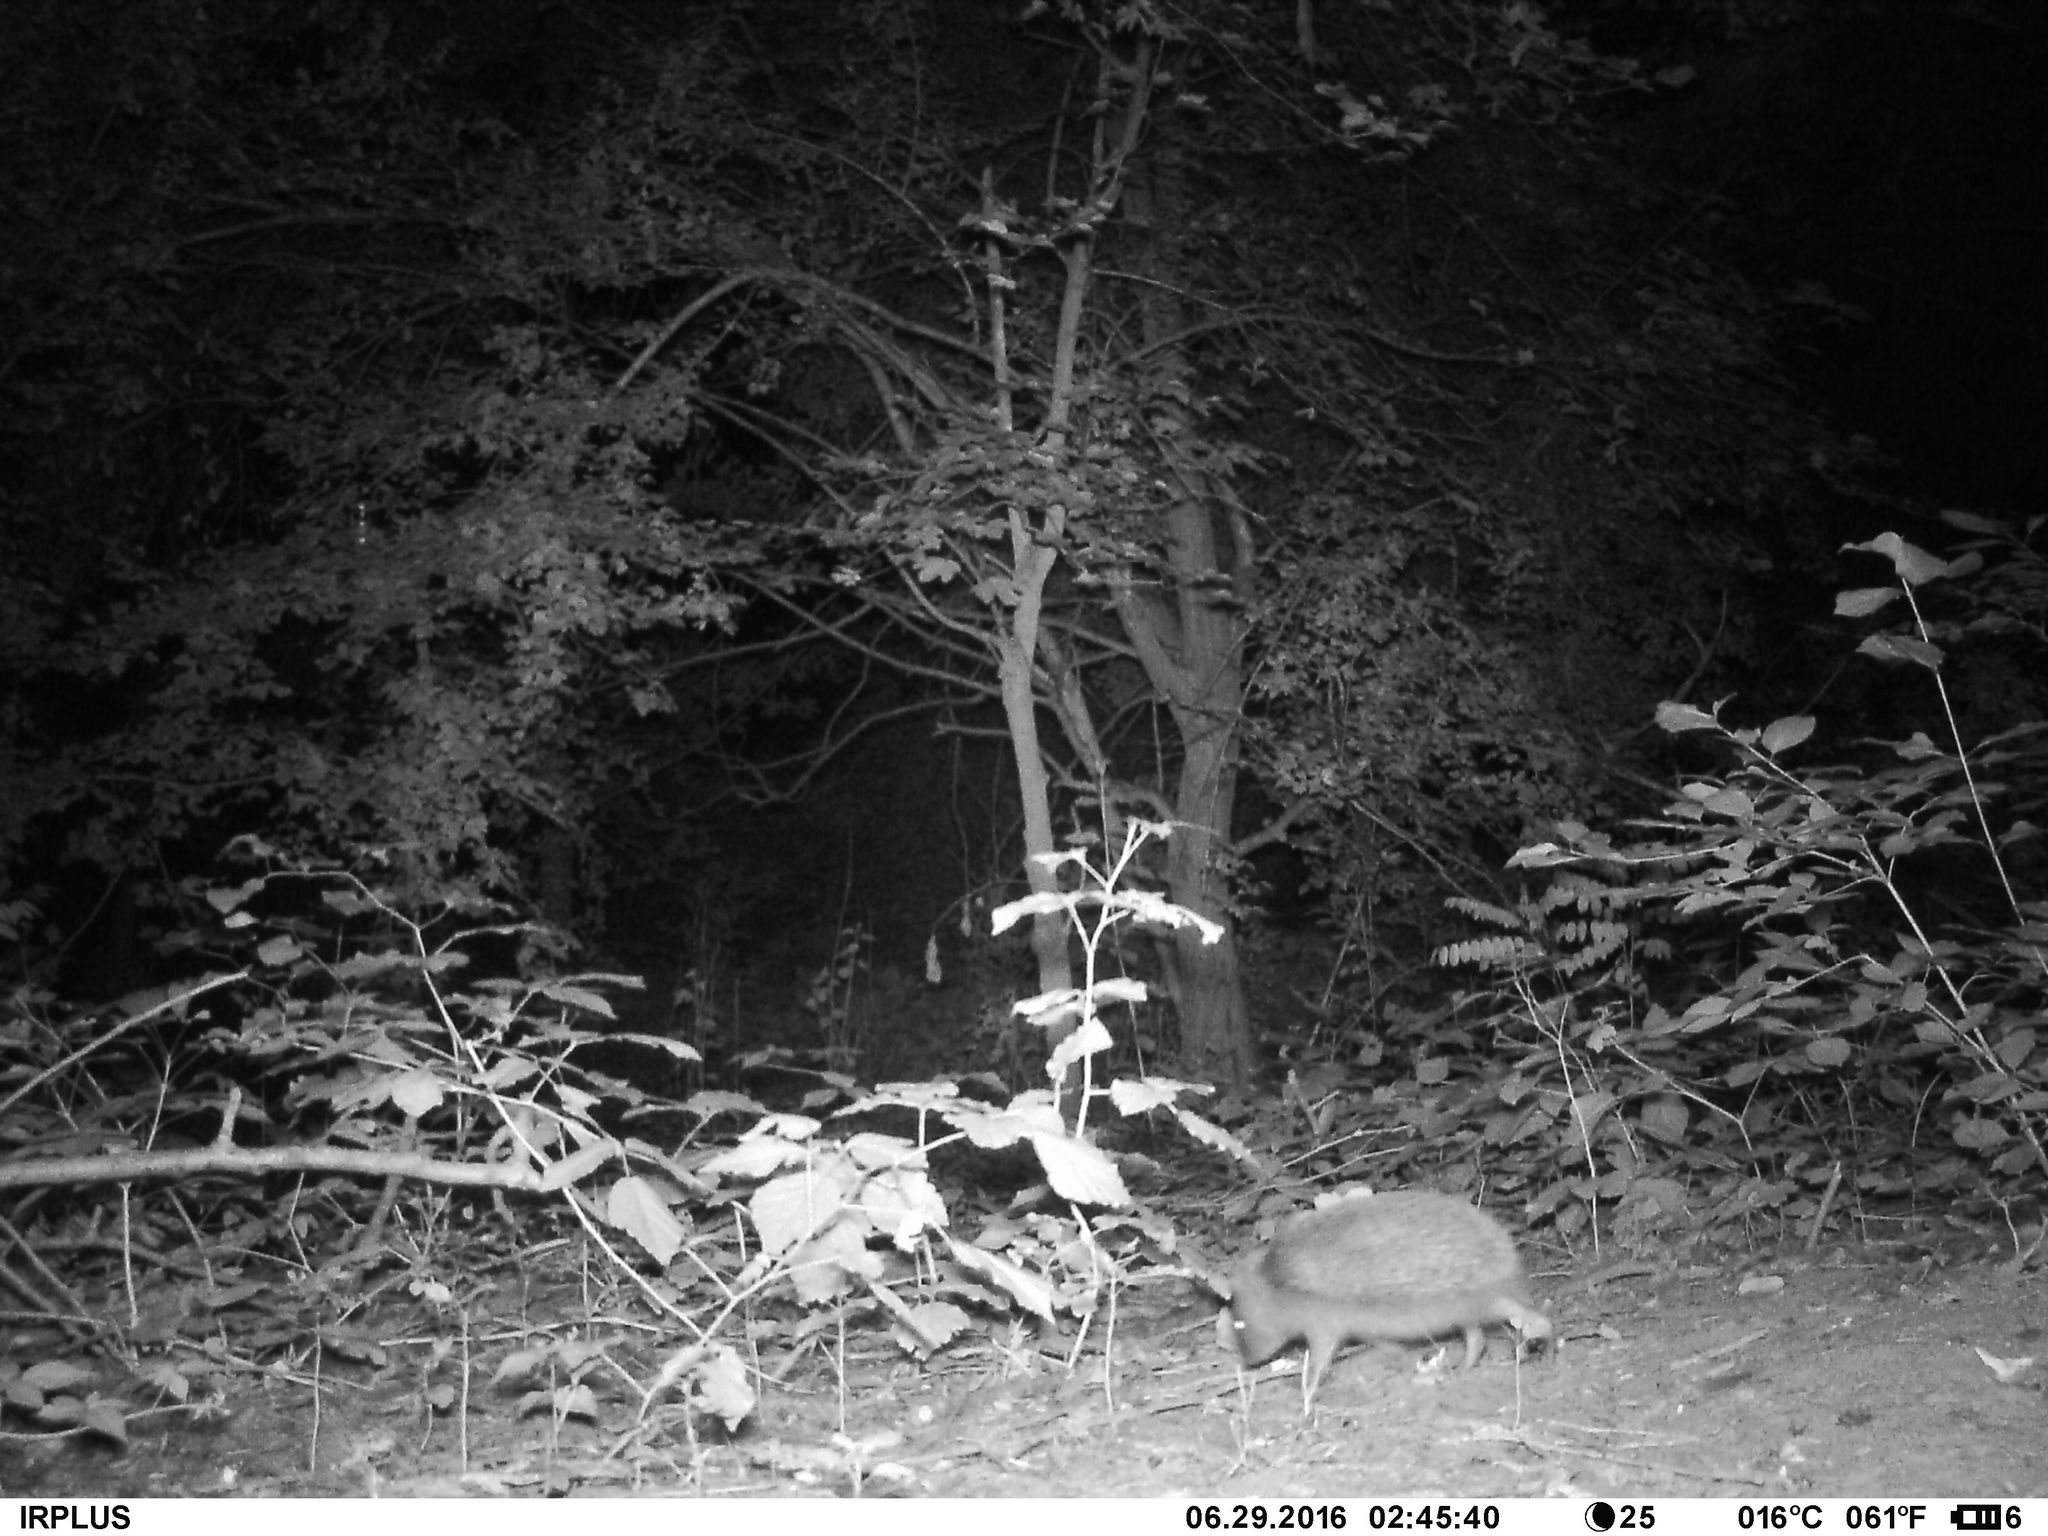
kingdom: Animalia
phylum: Chordata
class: Mammalia
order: Erinaceomorpha
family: Erinaceidae
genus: Erinaceus
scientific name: Erinaceus europaeus
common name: West european hedgehog
